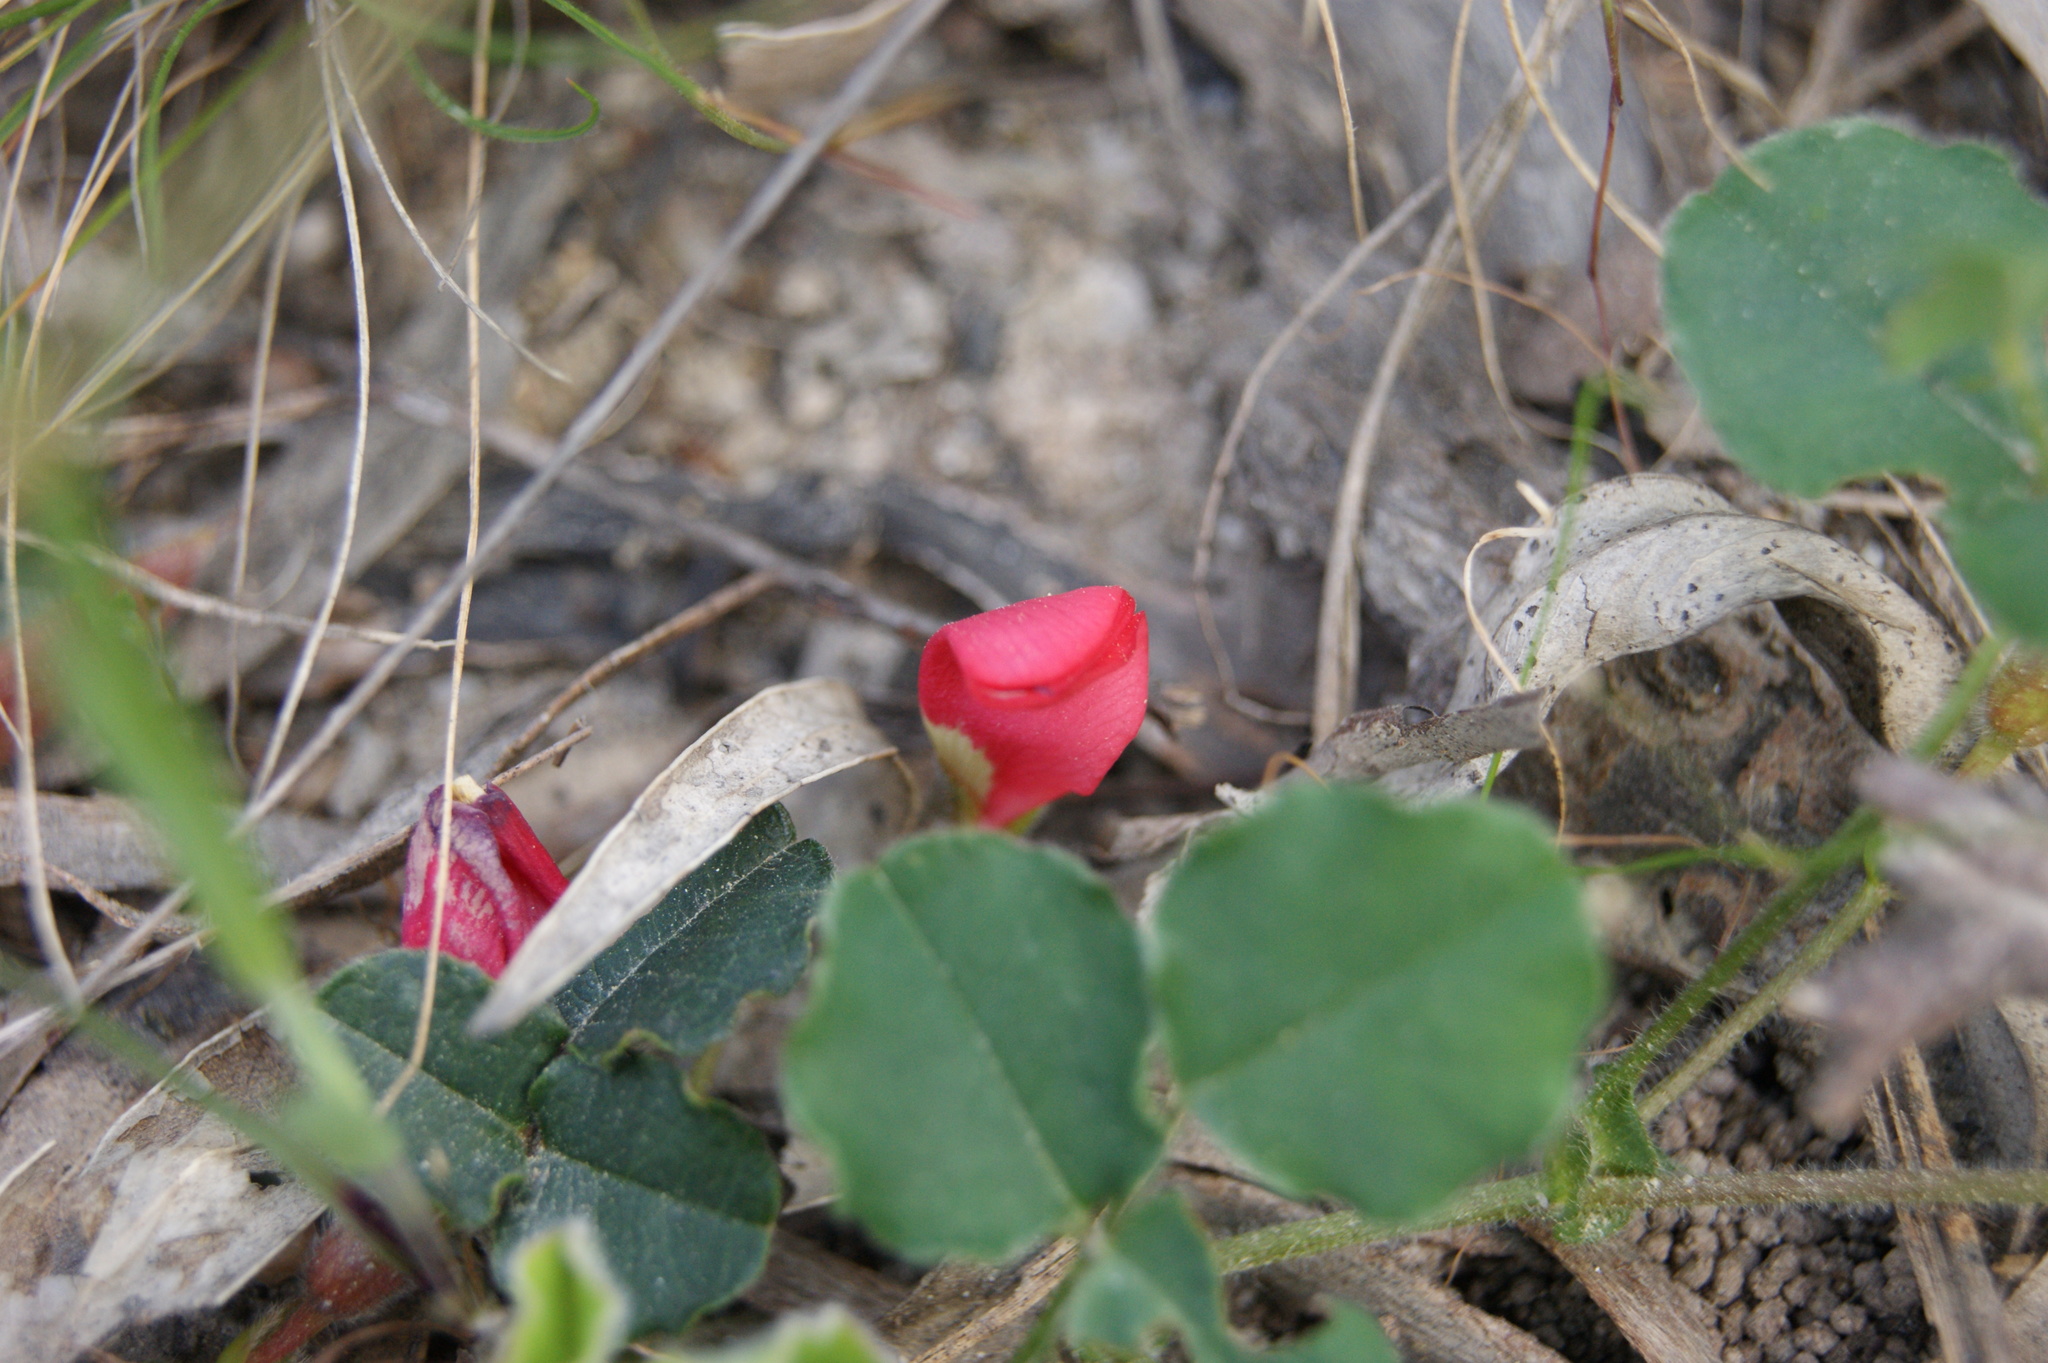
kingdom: Plantae
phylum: Tracheophyta
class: Magnoliopsida
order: Fabales
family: Fabaceae
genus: Kennedia
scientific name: Kennedia prostrata
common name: Running-postman
